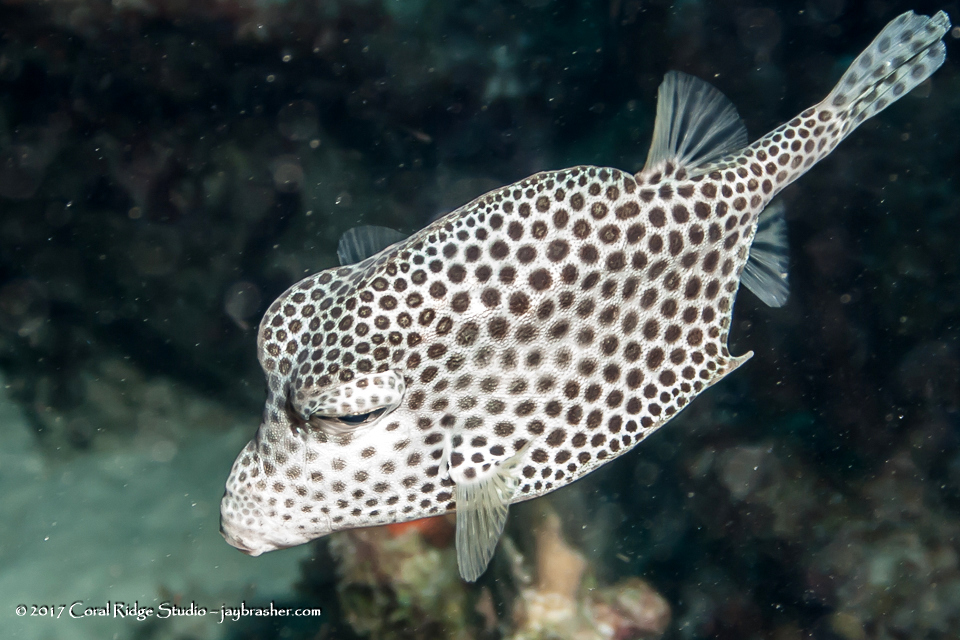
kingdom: Animalia
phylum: Chordata
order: Tetraodontiformes
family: Ostraciidae
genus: Lactophrys
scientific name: Lactophrys bicaudalis
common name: Spotted trunkfish
